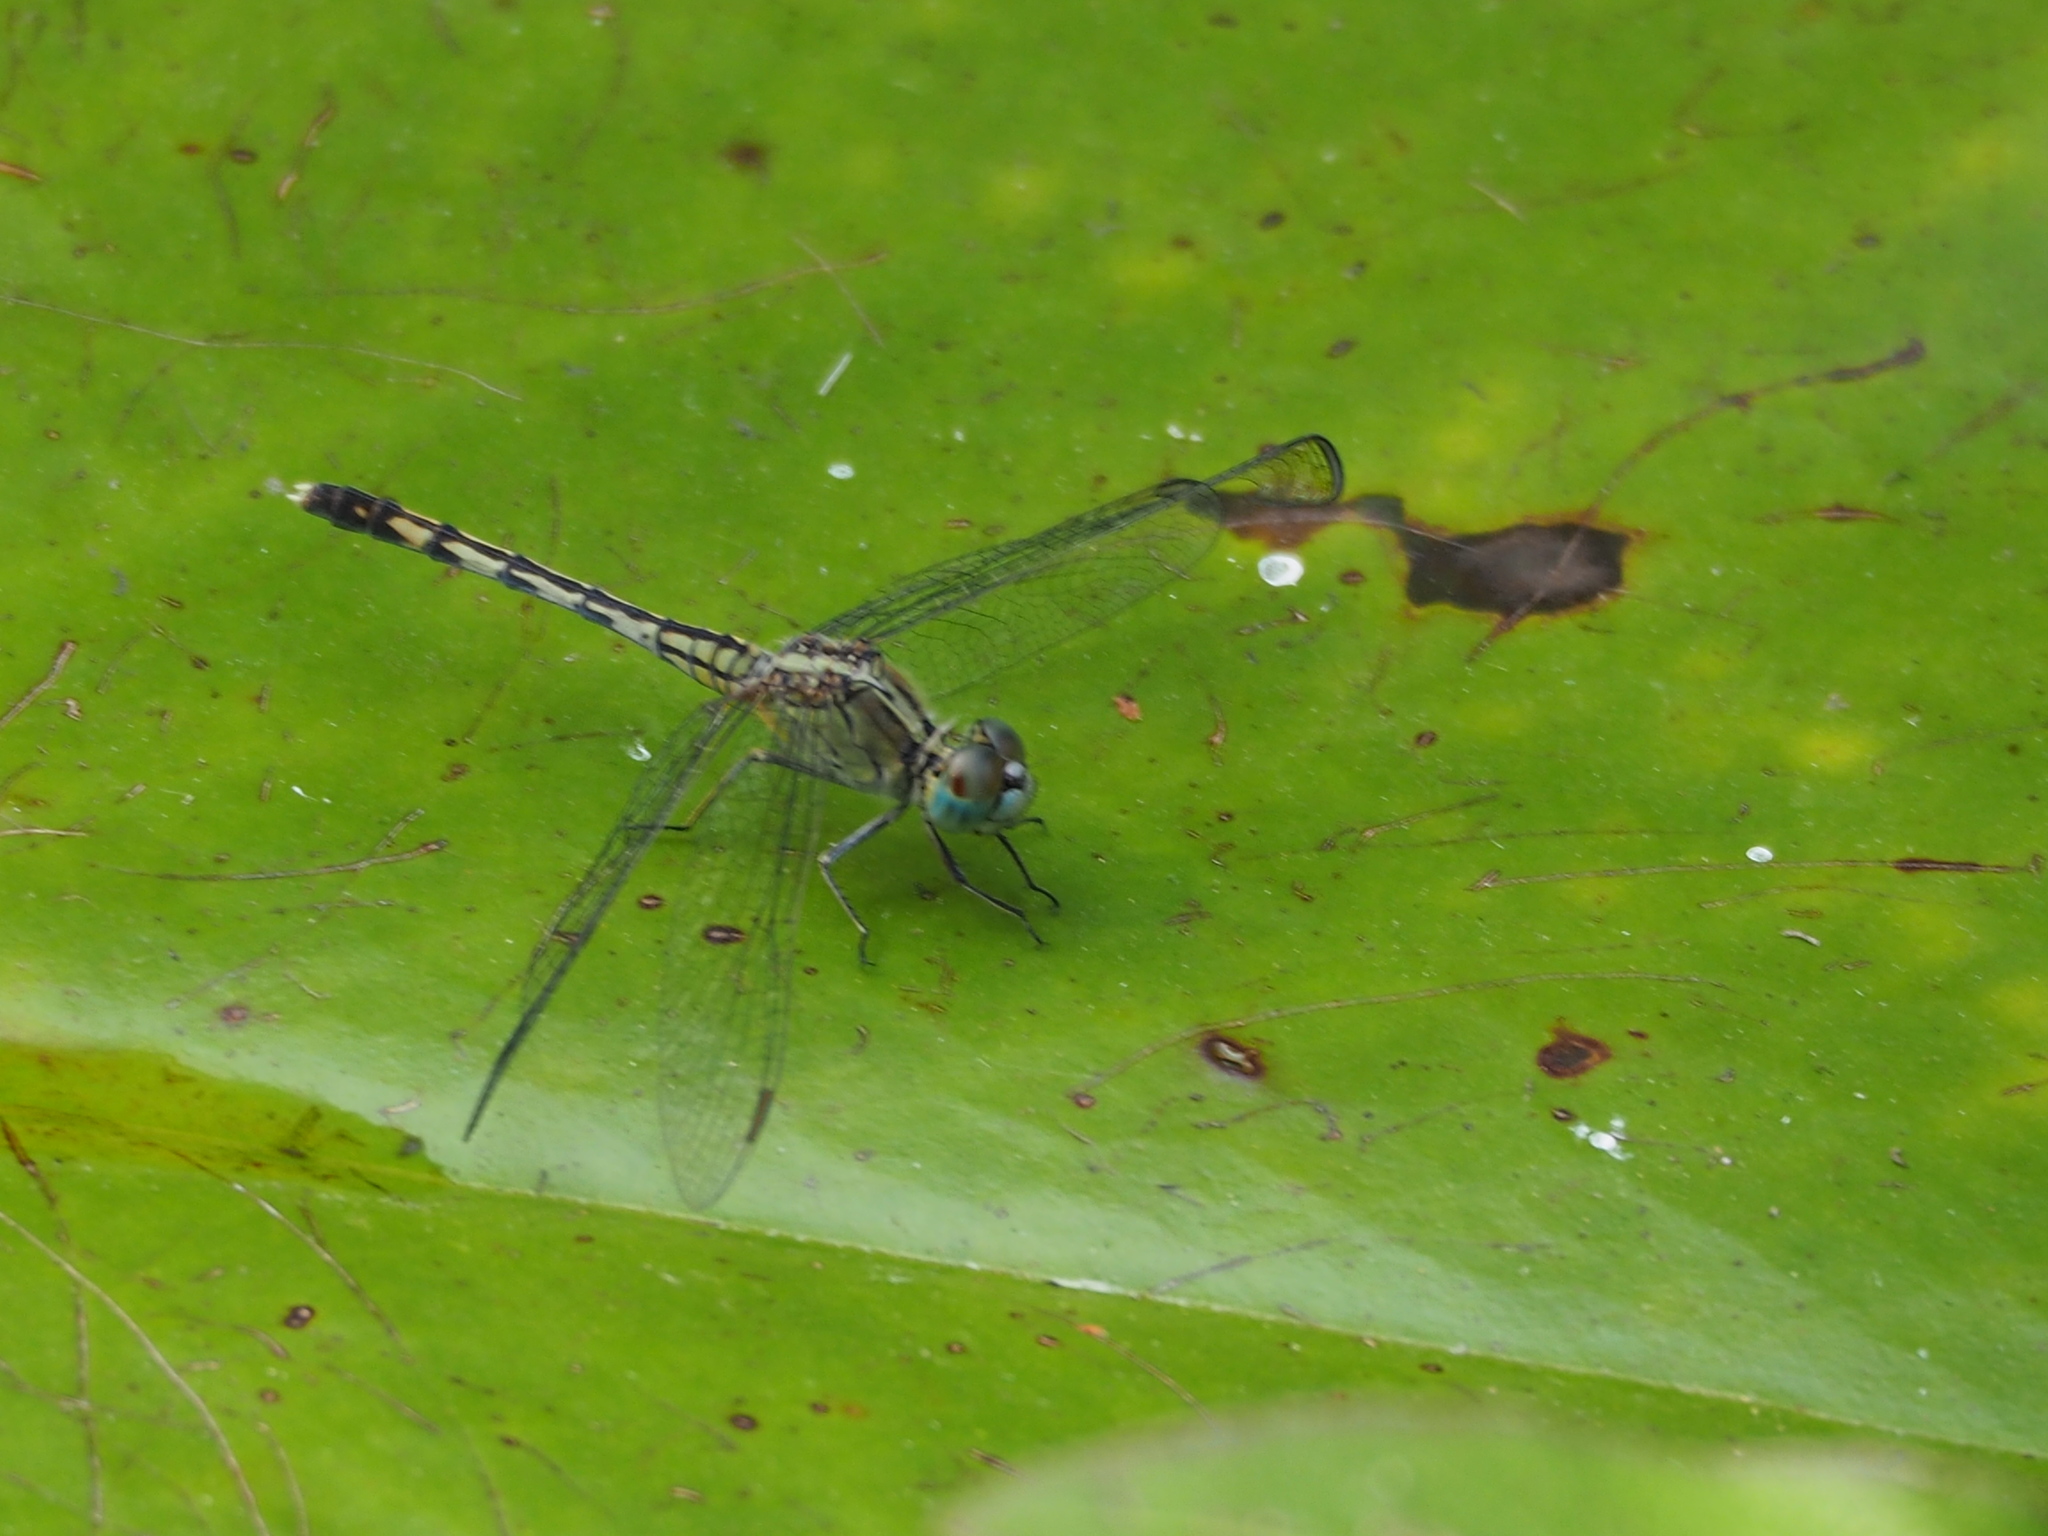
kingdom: Animalia
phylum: Arthropoda
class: Insecta
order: Odonata
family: Libellulidae
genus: Diplacodes
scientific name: Diplacodes trivialis
